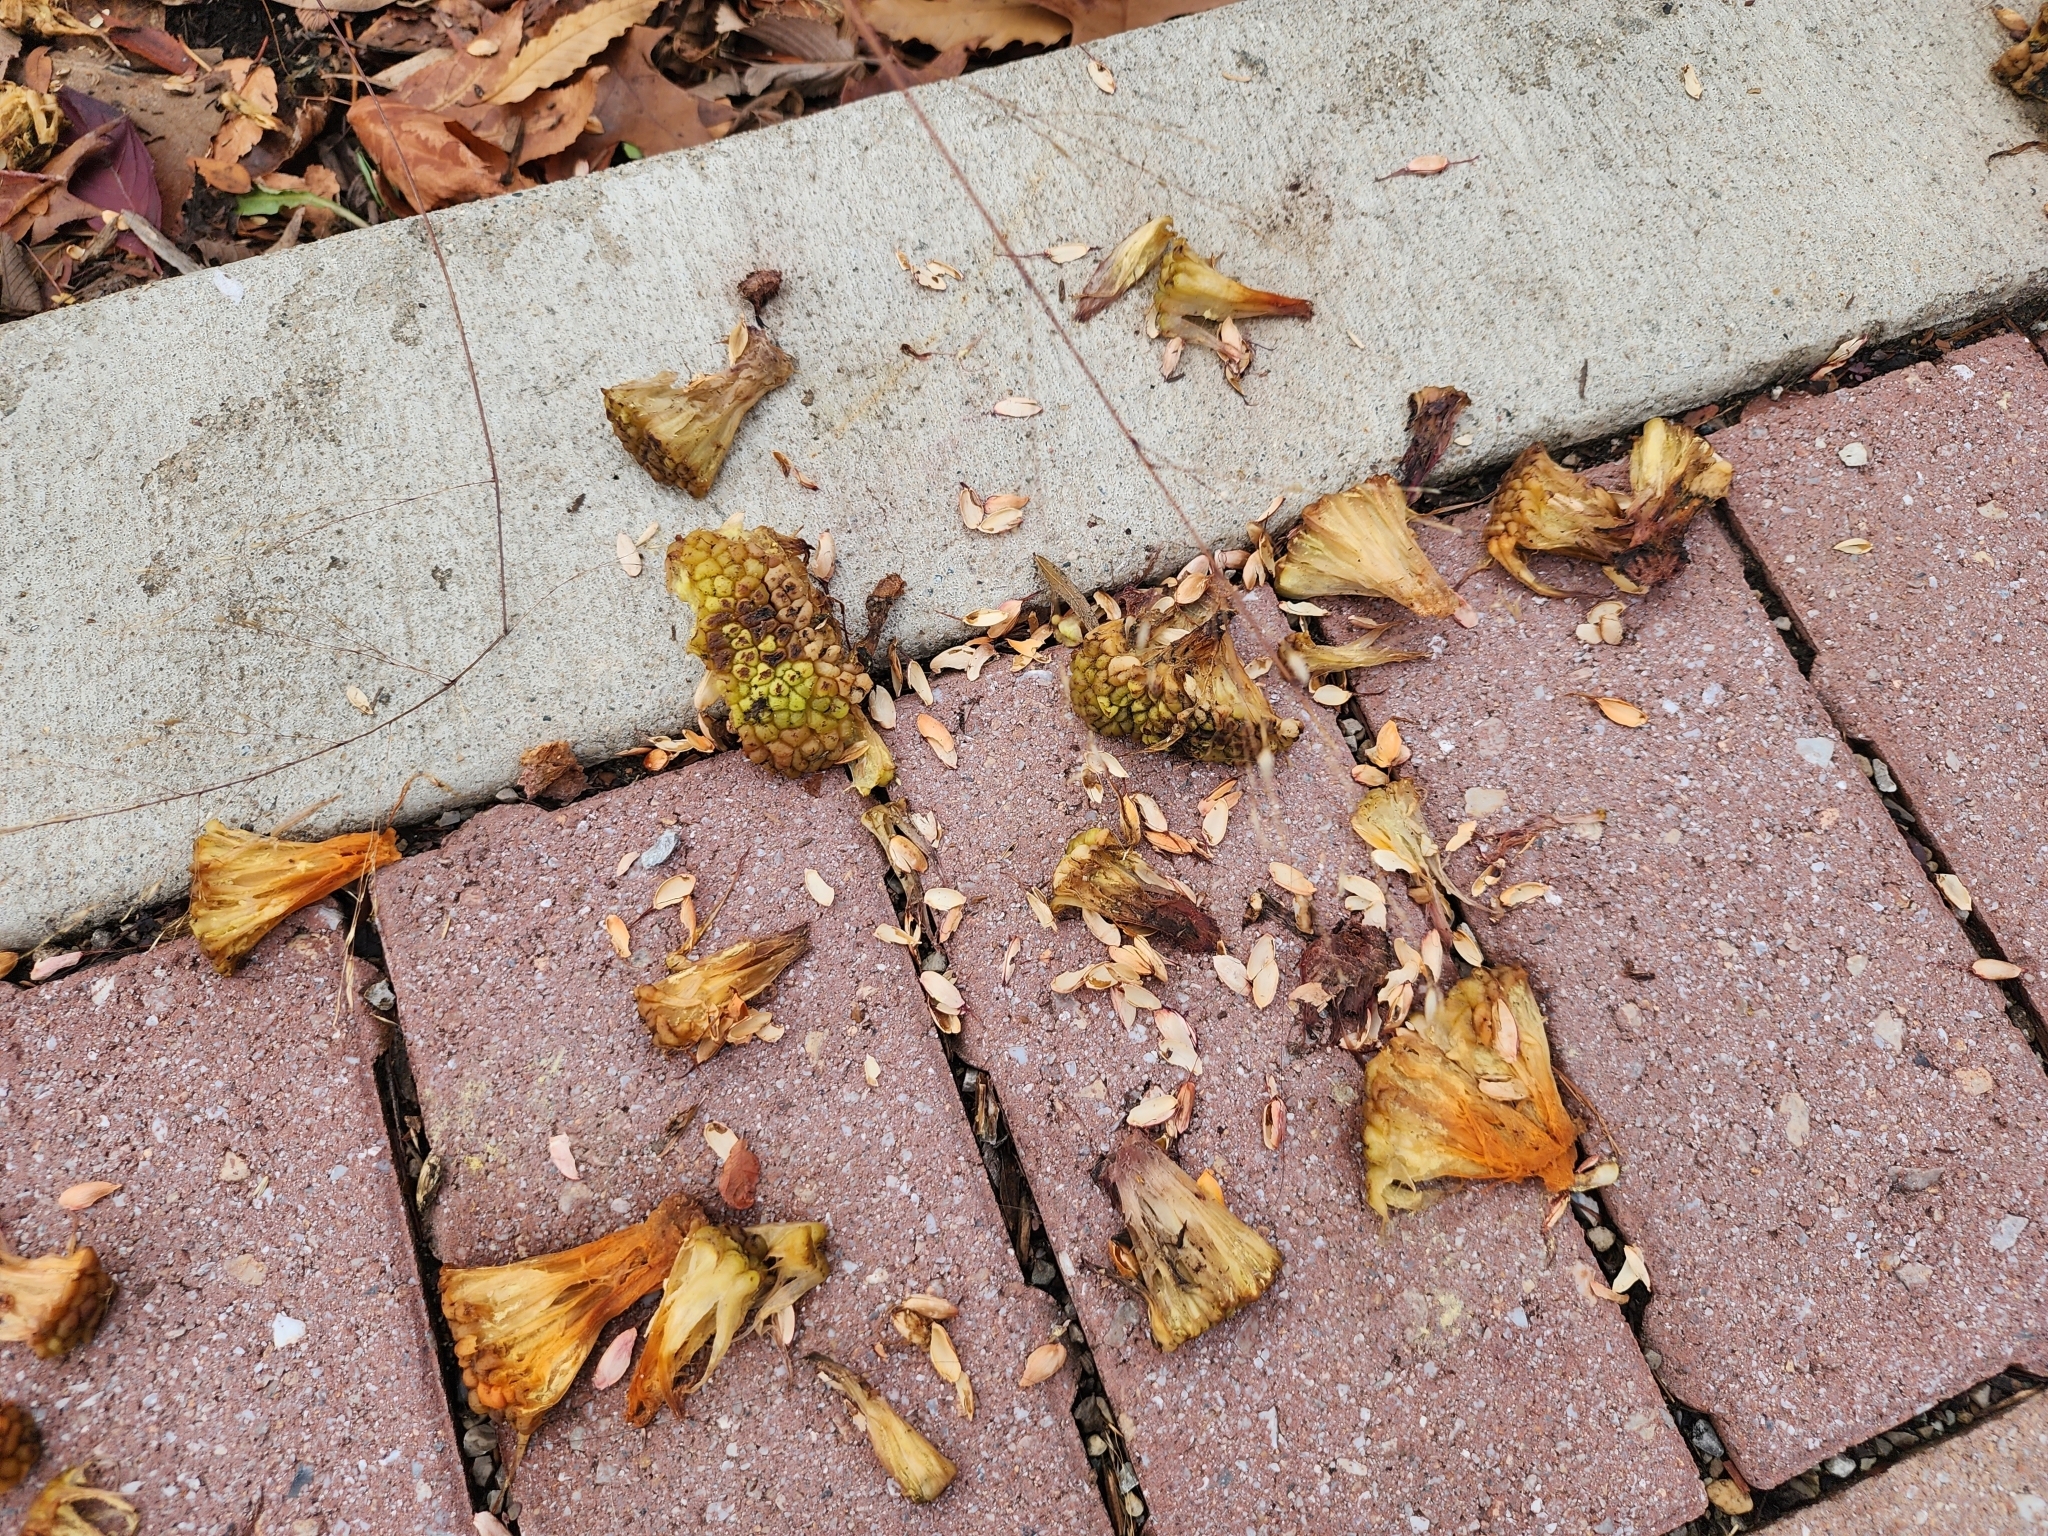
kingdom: Plantae
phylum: Tracheophyta
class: Magnoliopsida
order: Rosales
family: Moraceae
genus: Maclura
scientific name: Maclura pomifera
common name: Osage-orange
